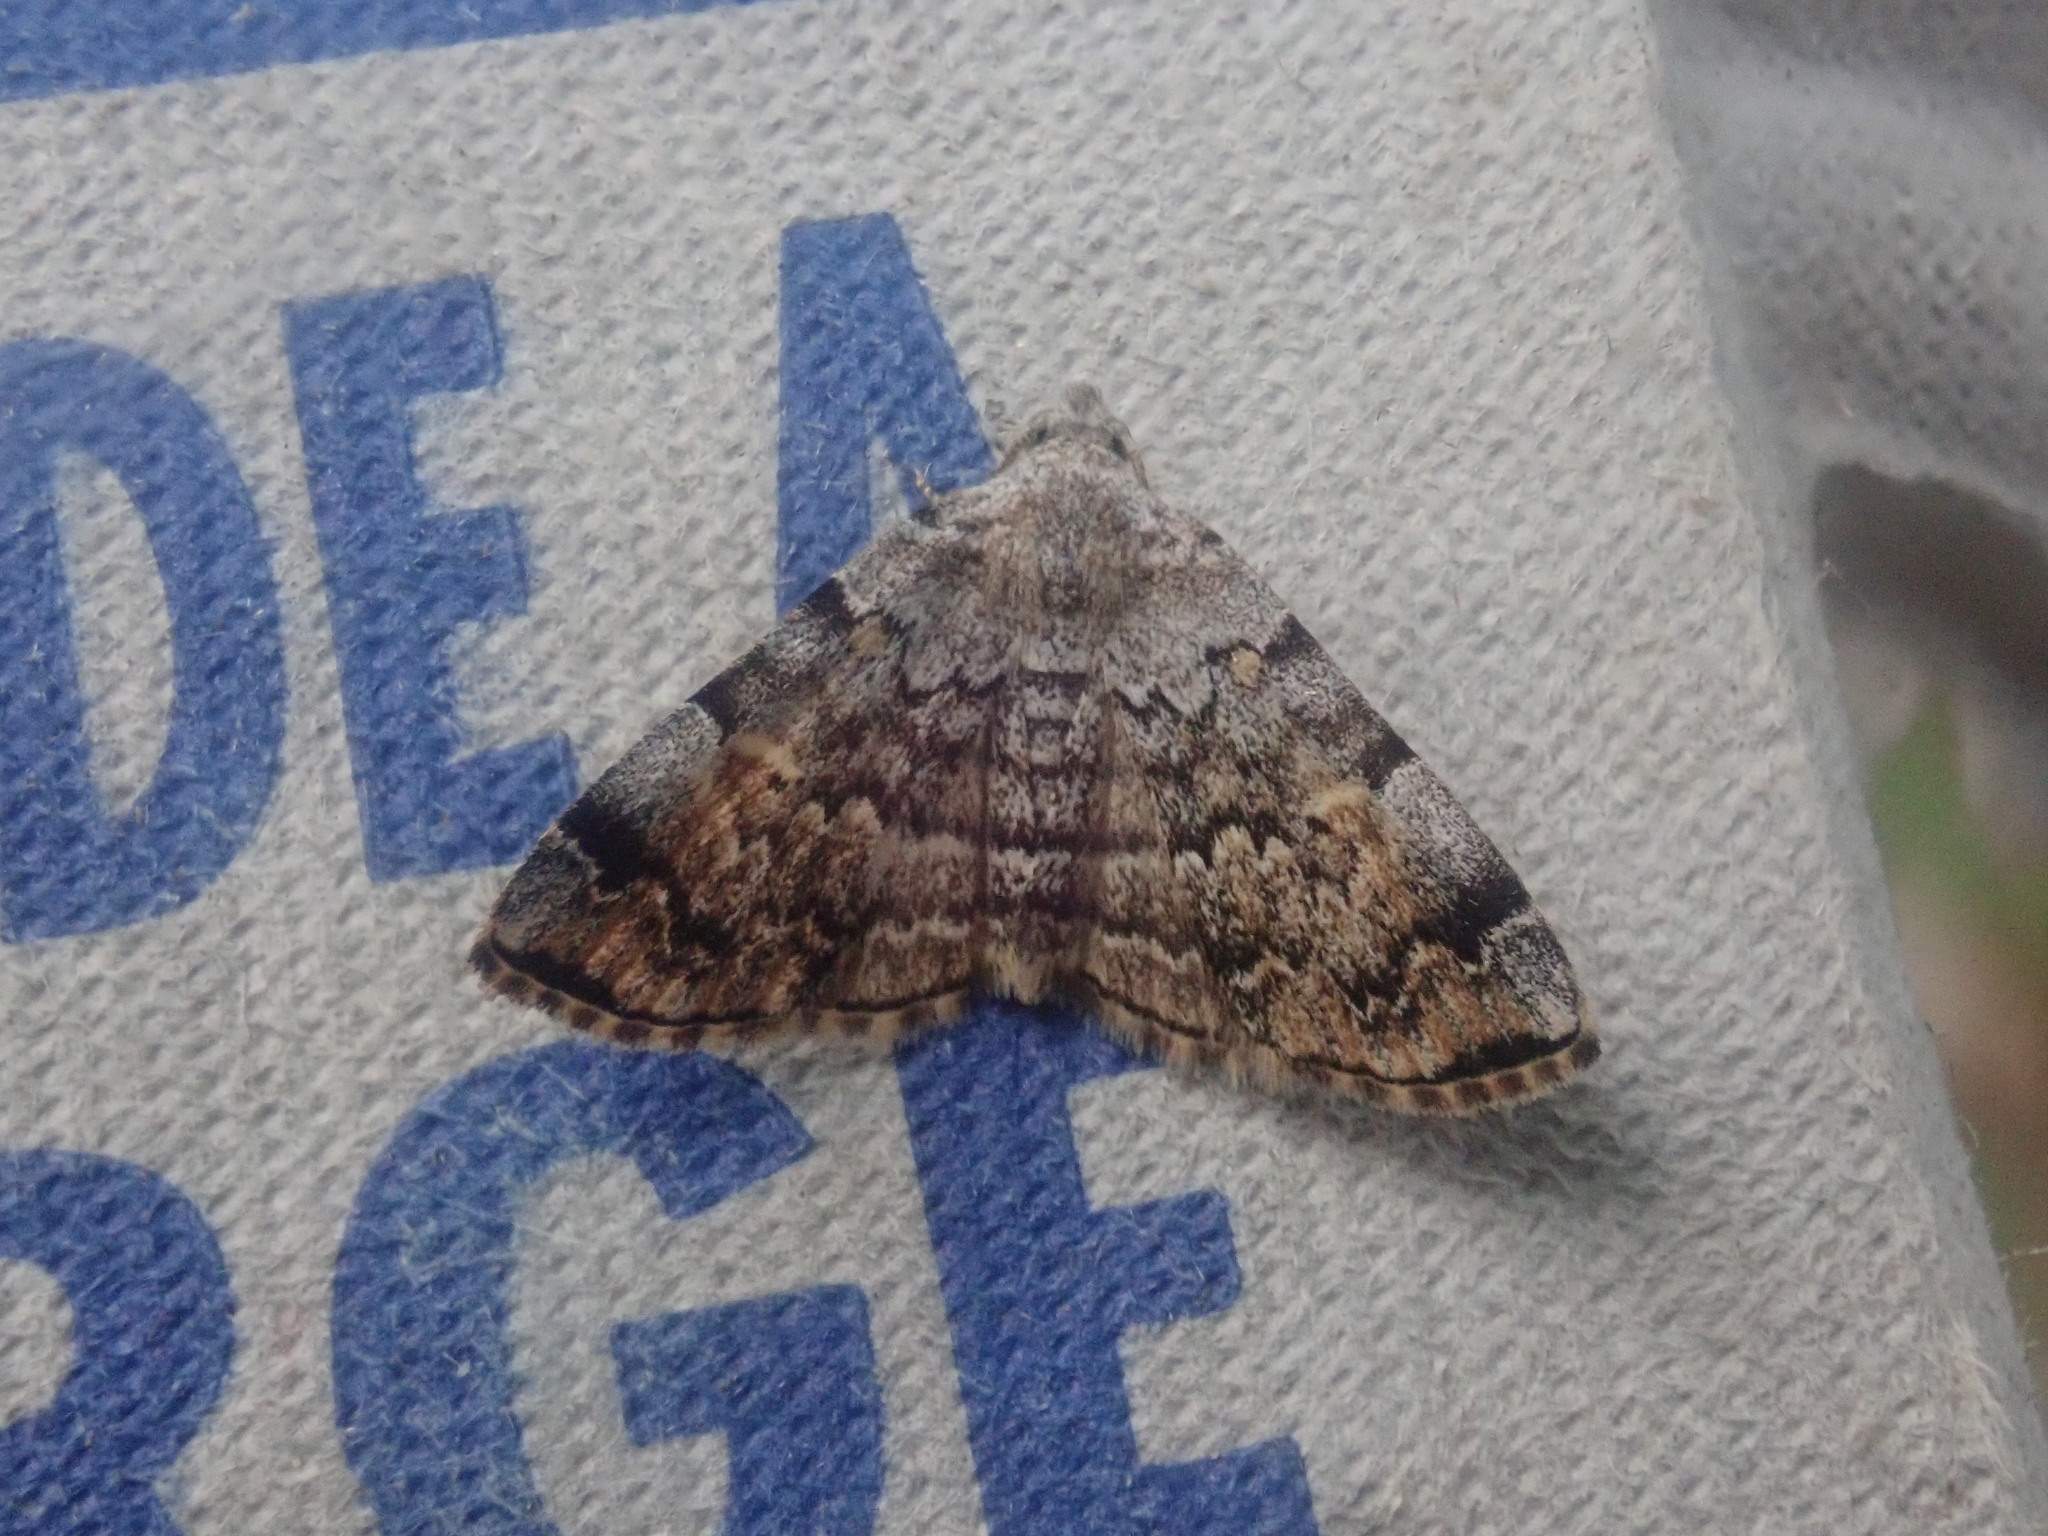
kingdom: Animalia
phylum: Arthropoda
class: Insecta
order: Lepidoptera
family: Erebidae
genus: Idia
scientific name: Idia americalis
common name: American idia moth
